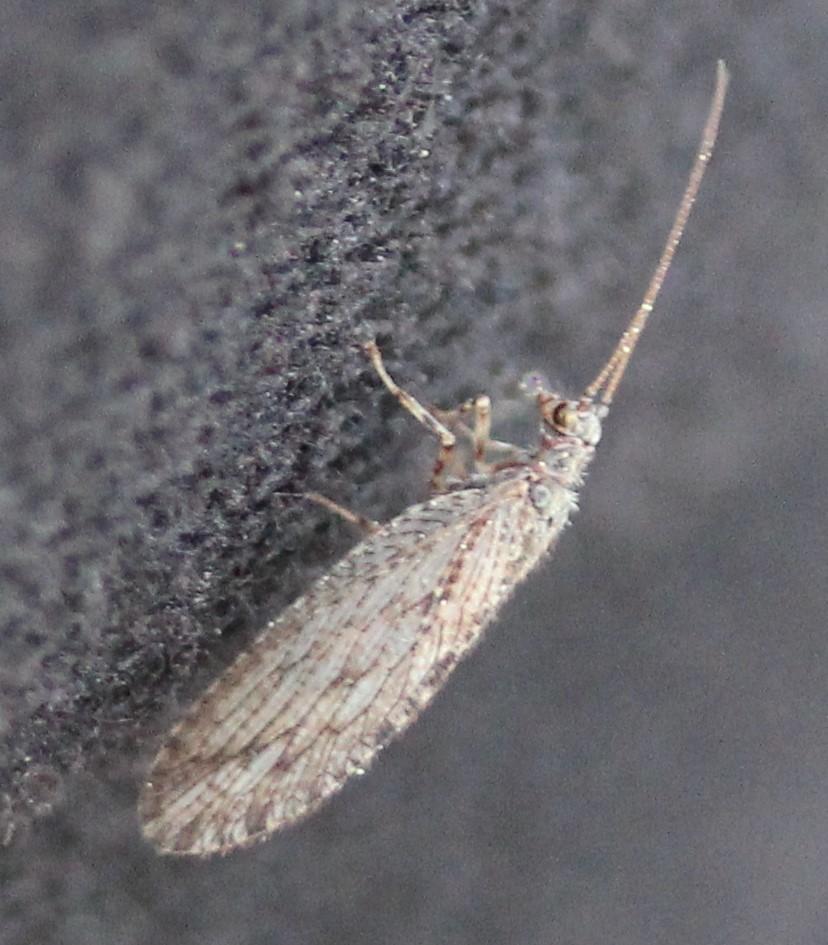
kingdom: Animalia
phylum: Arthropoda
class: Insecta
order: Neuroptera
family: Hemerobiidae
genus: Micromus
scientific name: Micromus variolosus
